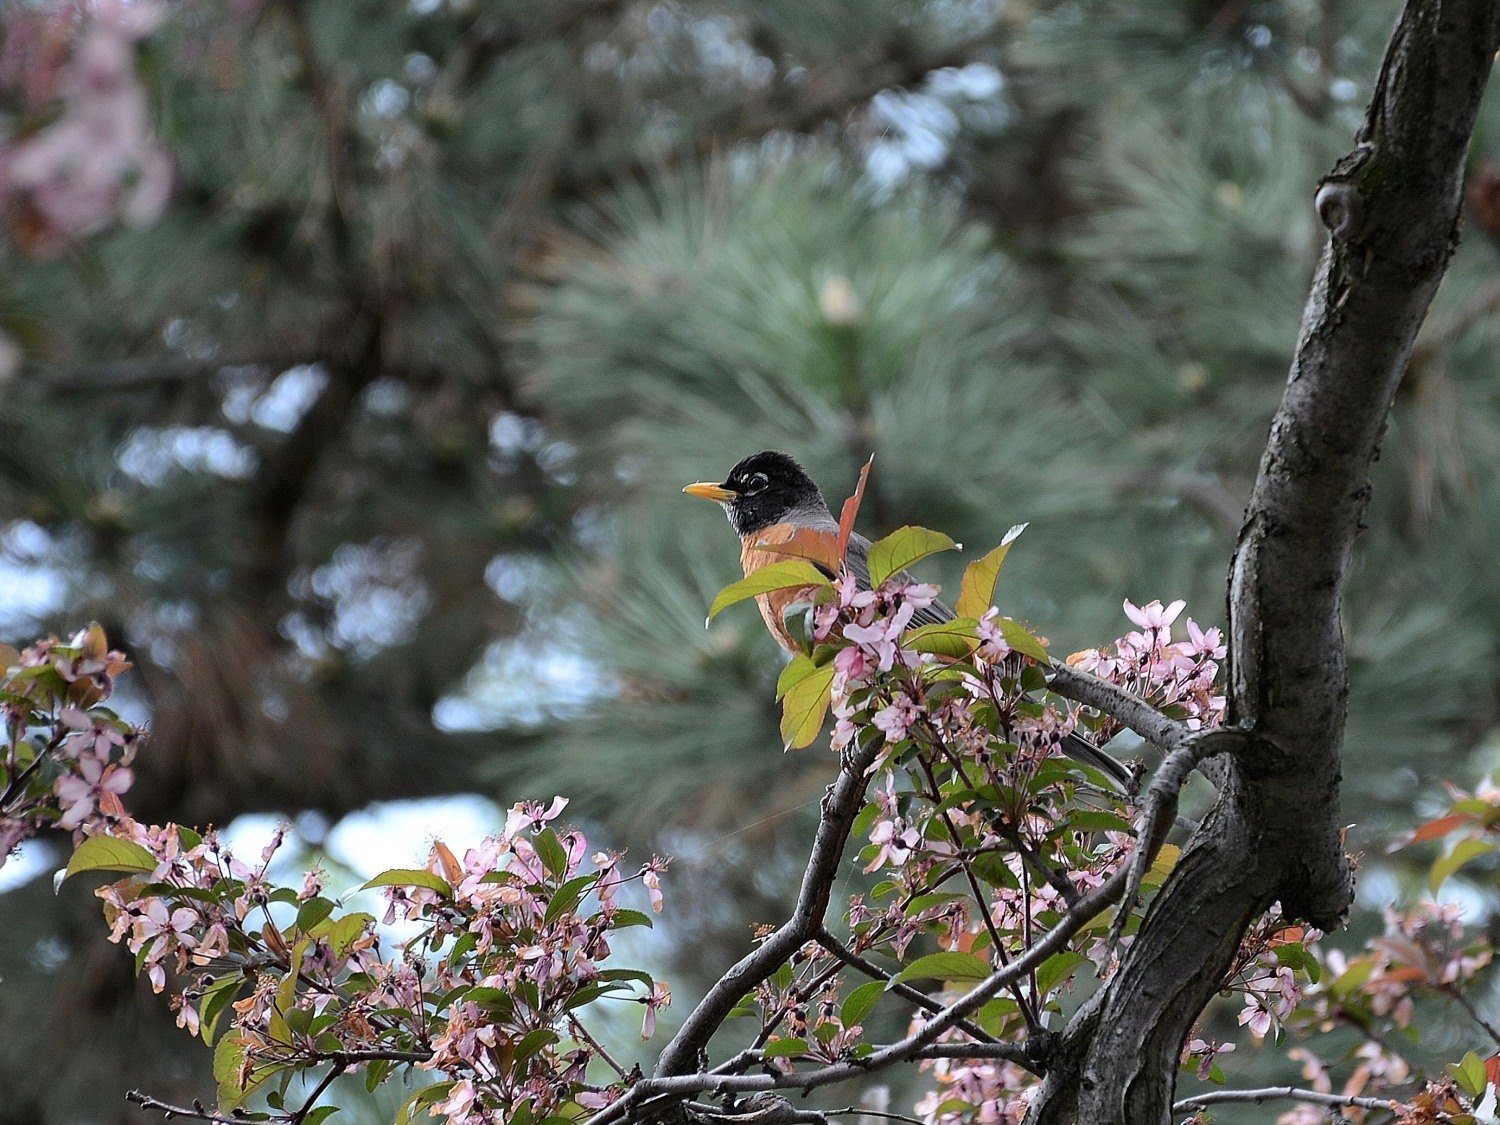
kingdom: Animalia
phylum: Chordata
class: Aves
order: Passeriformes
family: Turdidae
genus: Turdus
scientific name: Turdus migratorius
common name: American robin
